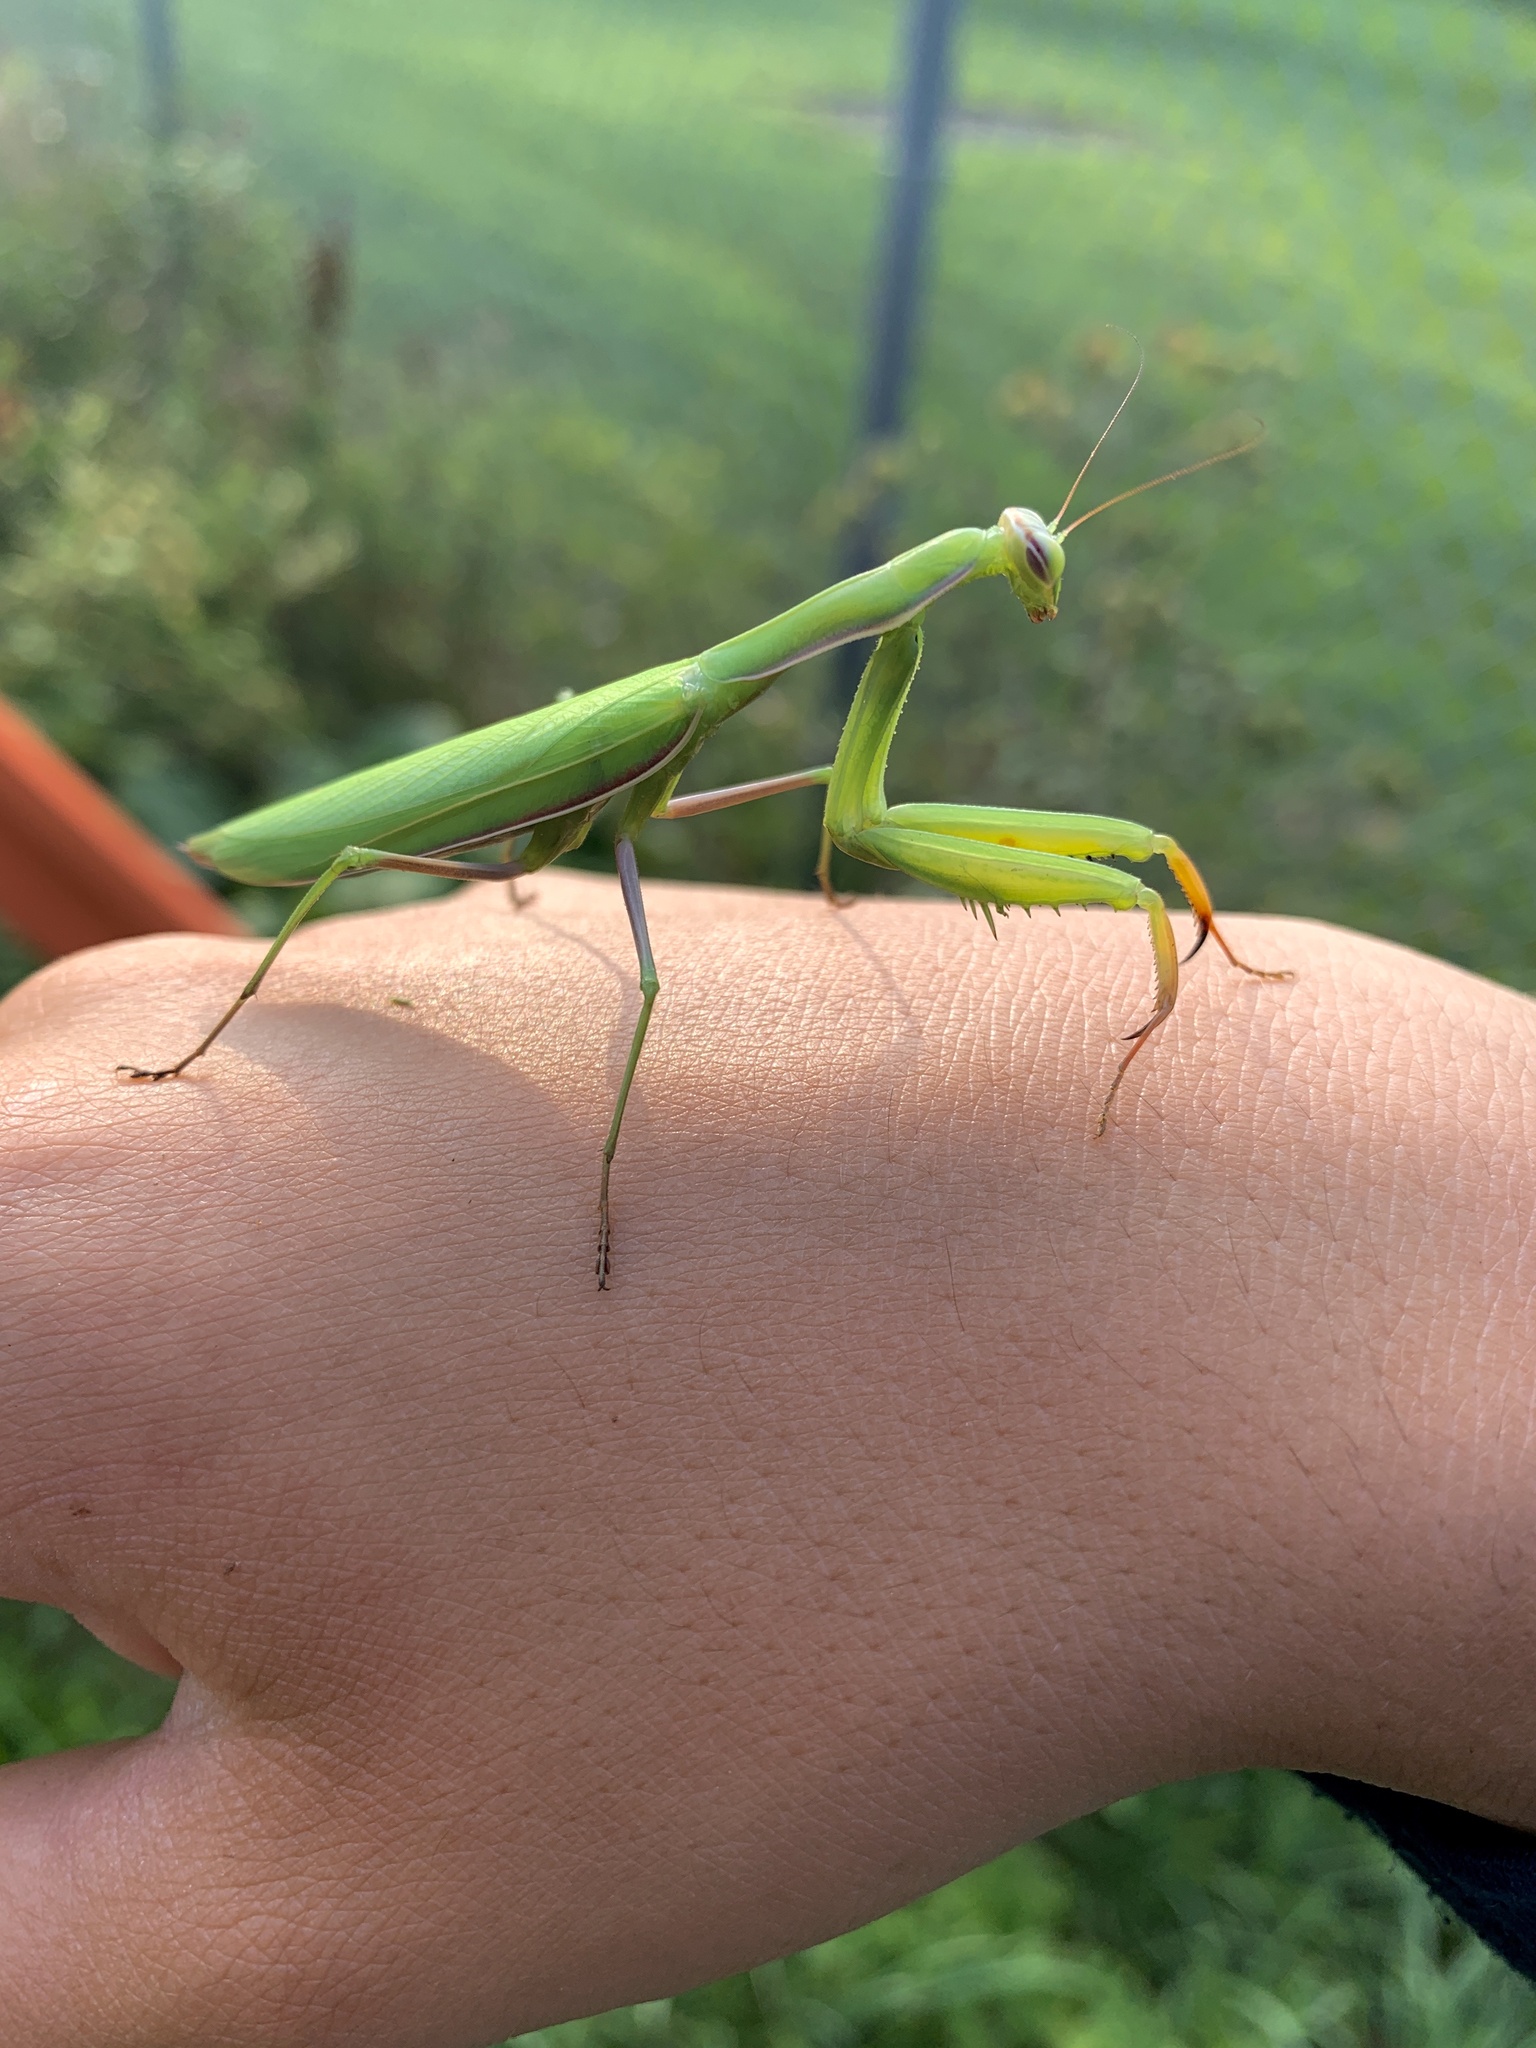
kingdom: Animalia
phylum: Arthropoda
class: Insecta
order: Mantodea
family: Mantidae
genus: Mantis
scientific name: Mantis religiosa
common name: Praying mantis
